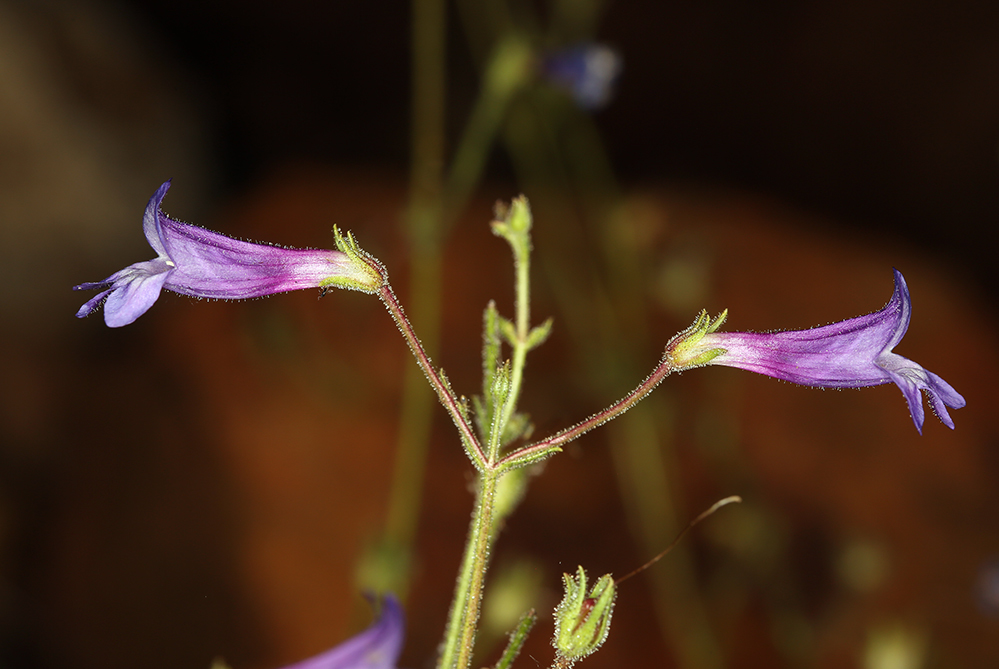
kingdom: Plantae
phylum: Tracheophyta
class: Magnoliopsida
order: Lamiales
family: Plantaginaceae
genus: Penstemon
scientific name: Penstemon filiformis
